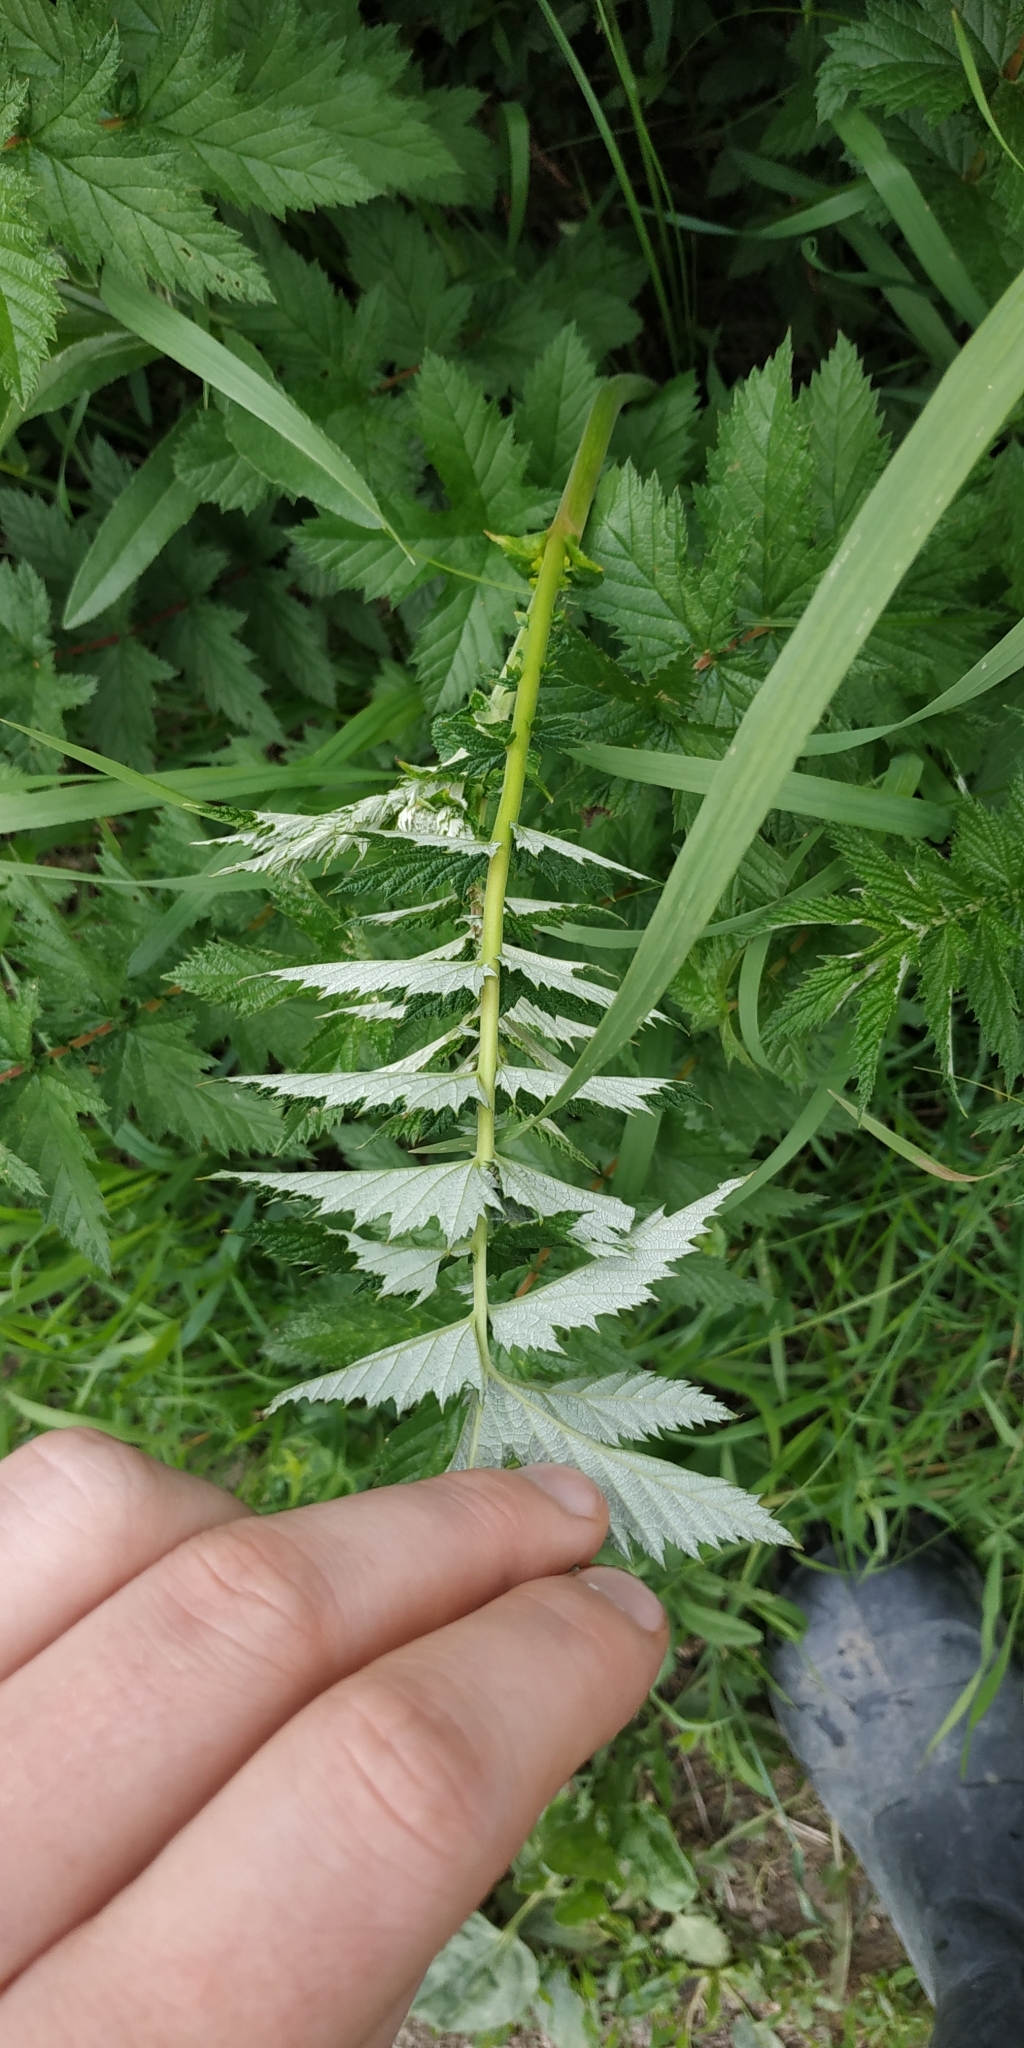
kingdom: Plantae
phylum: Tracheophyta
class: Magnoliopsida
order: Rosales
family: Rosaceae
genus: Filipendula
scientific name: Filipendula ulmaria
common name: Meadowsweet
